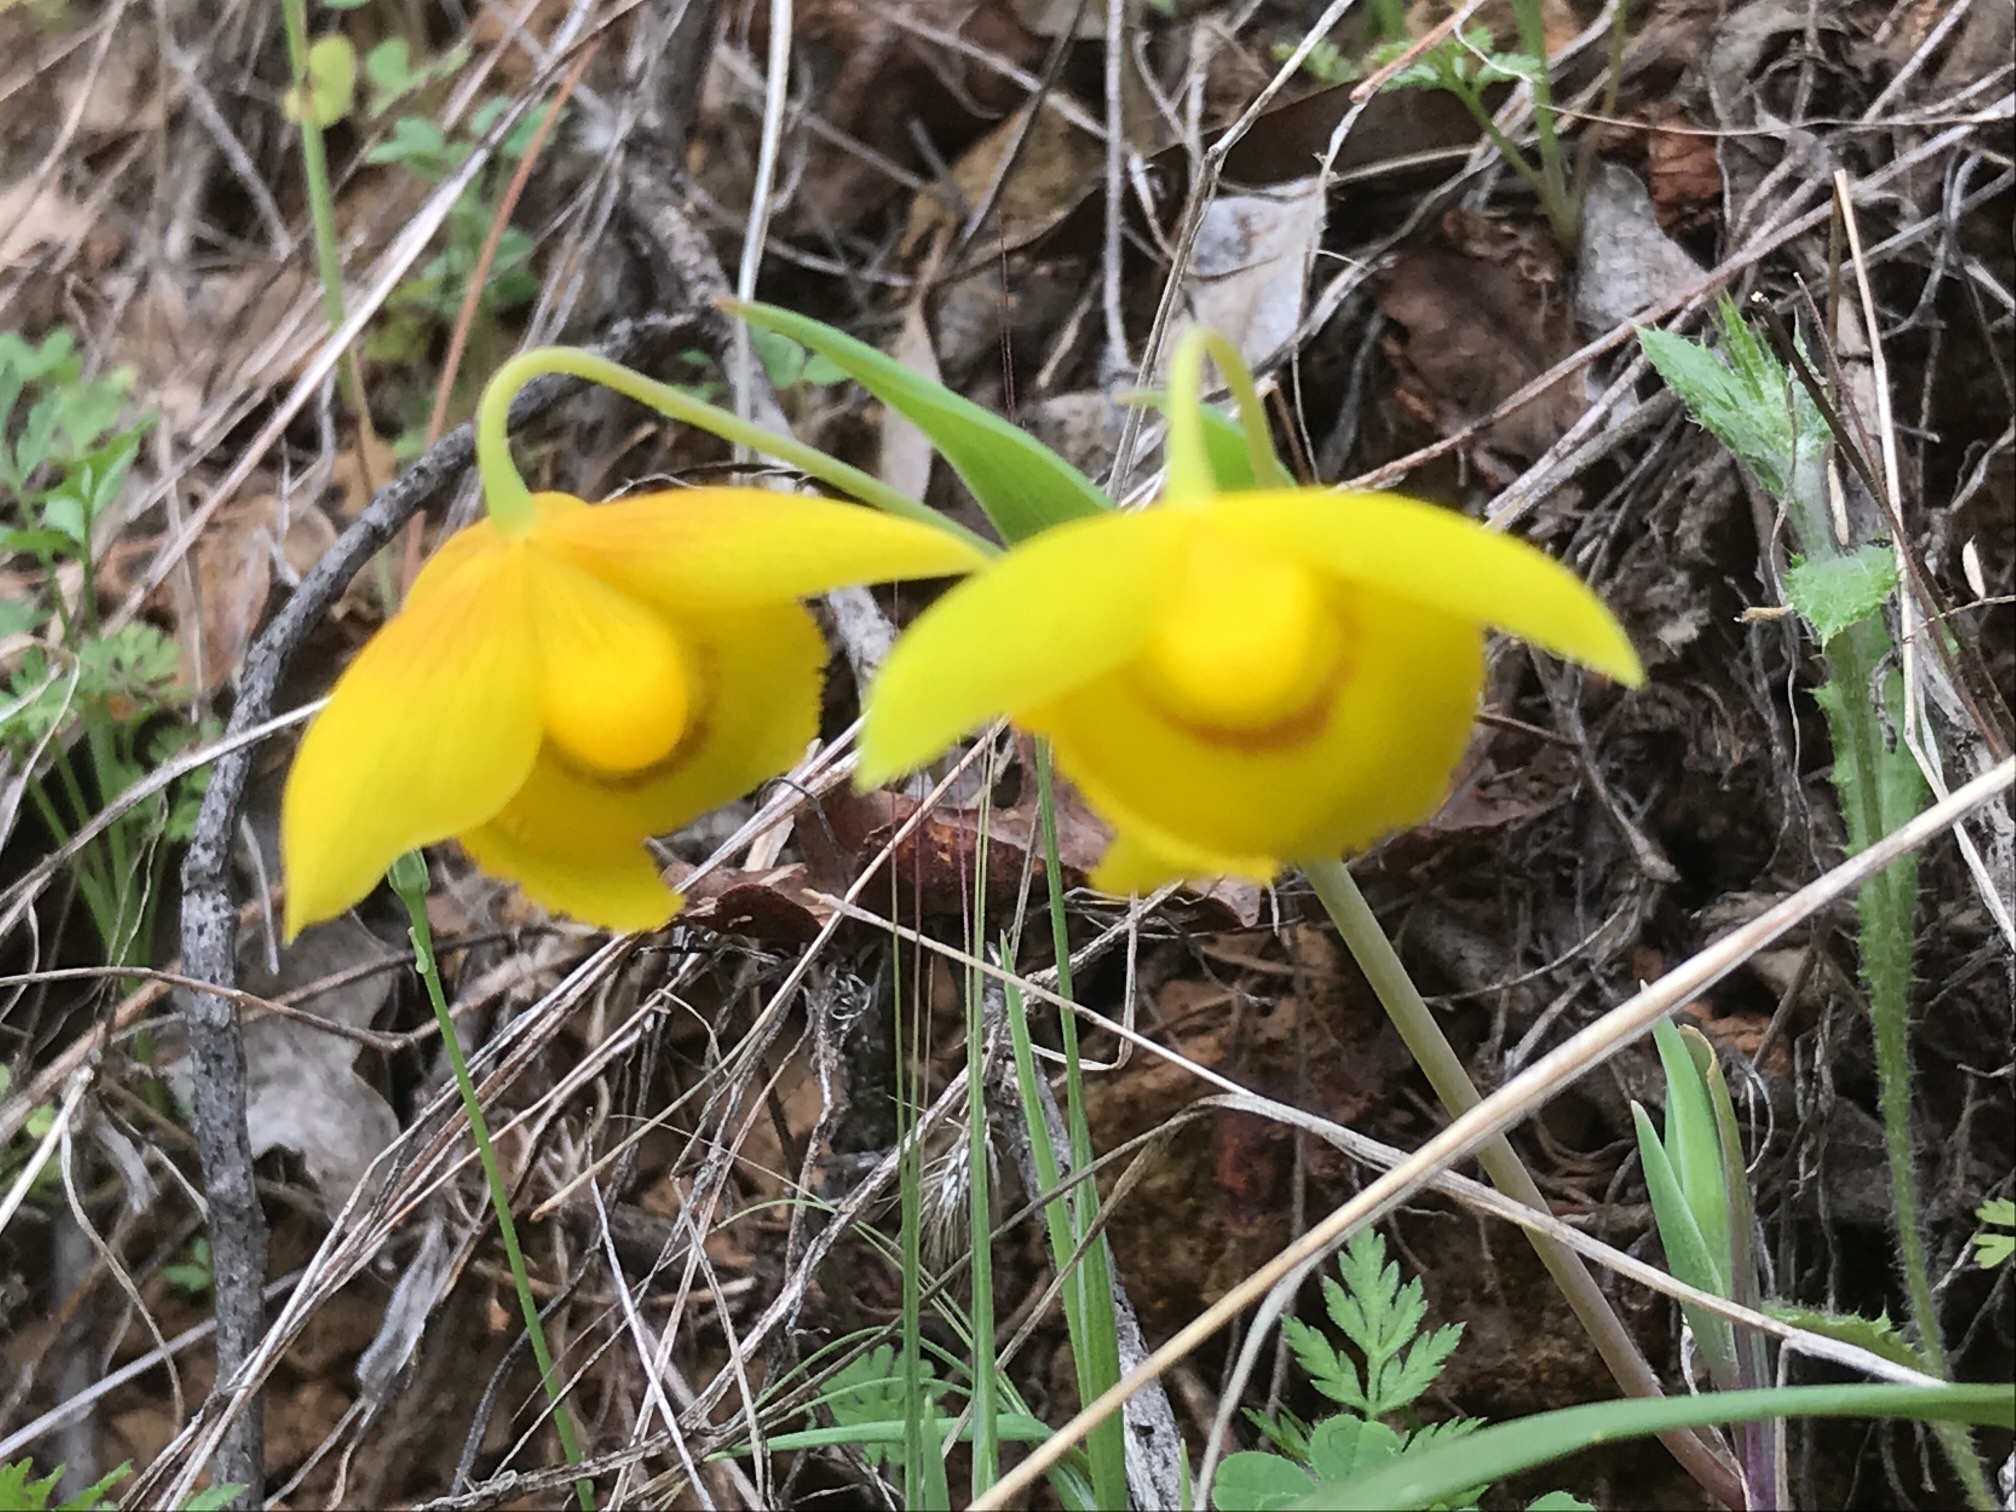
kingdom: Plantae
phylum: Tracheophyta
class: Liliopsida
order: Liliales
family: Liliaceae
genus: Calochortus
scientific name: Calochortus amabilis
